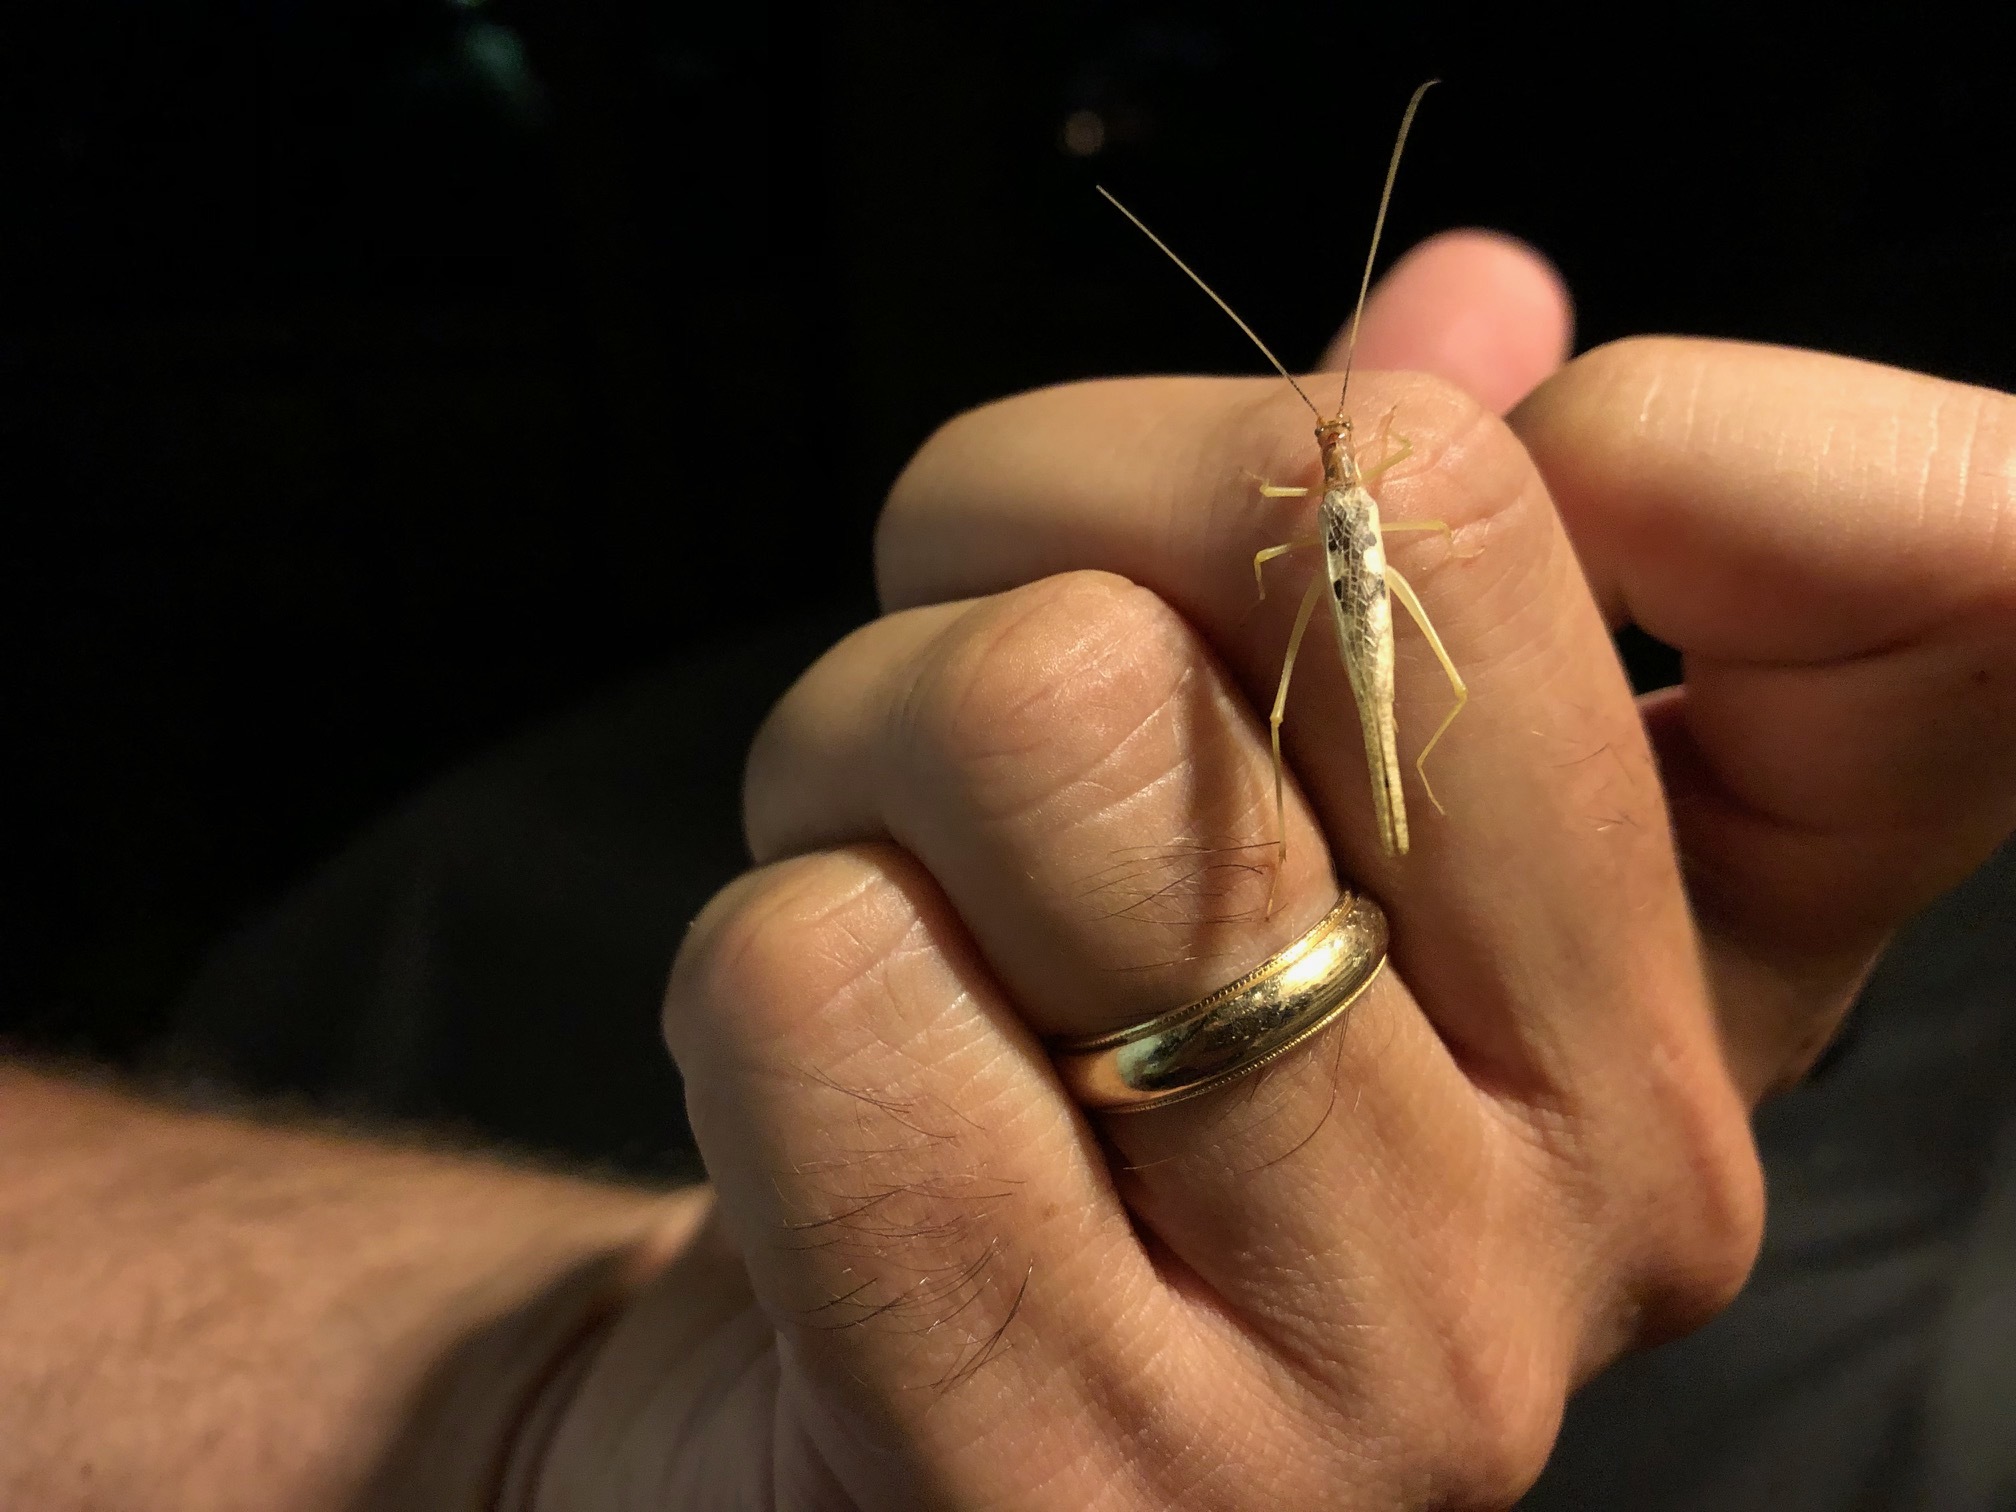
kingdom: Animalia
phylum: Arthropoda
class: Insecta
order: Orthoptera
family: Gryllidae
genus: Neoxabea
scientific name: Neoxabea bipunctata
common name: Two-spotted tree cricket
